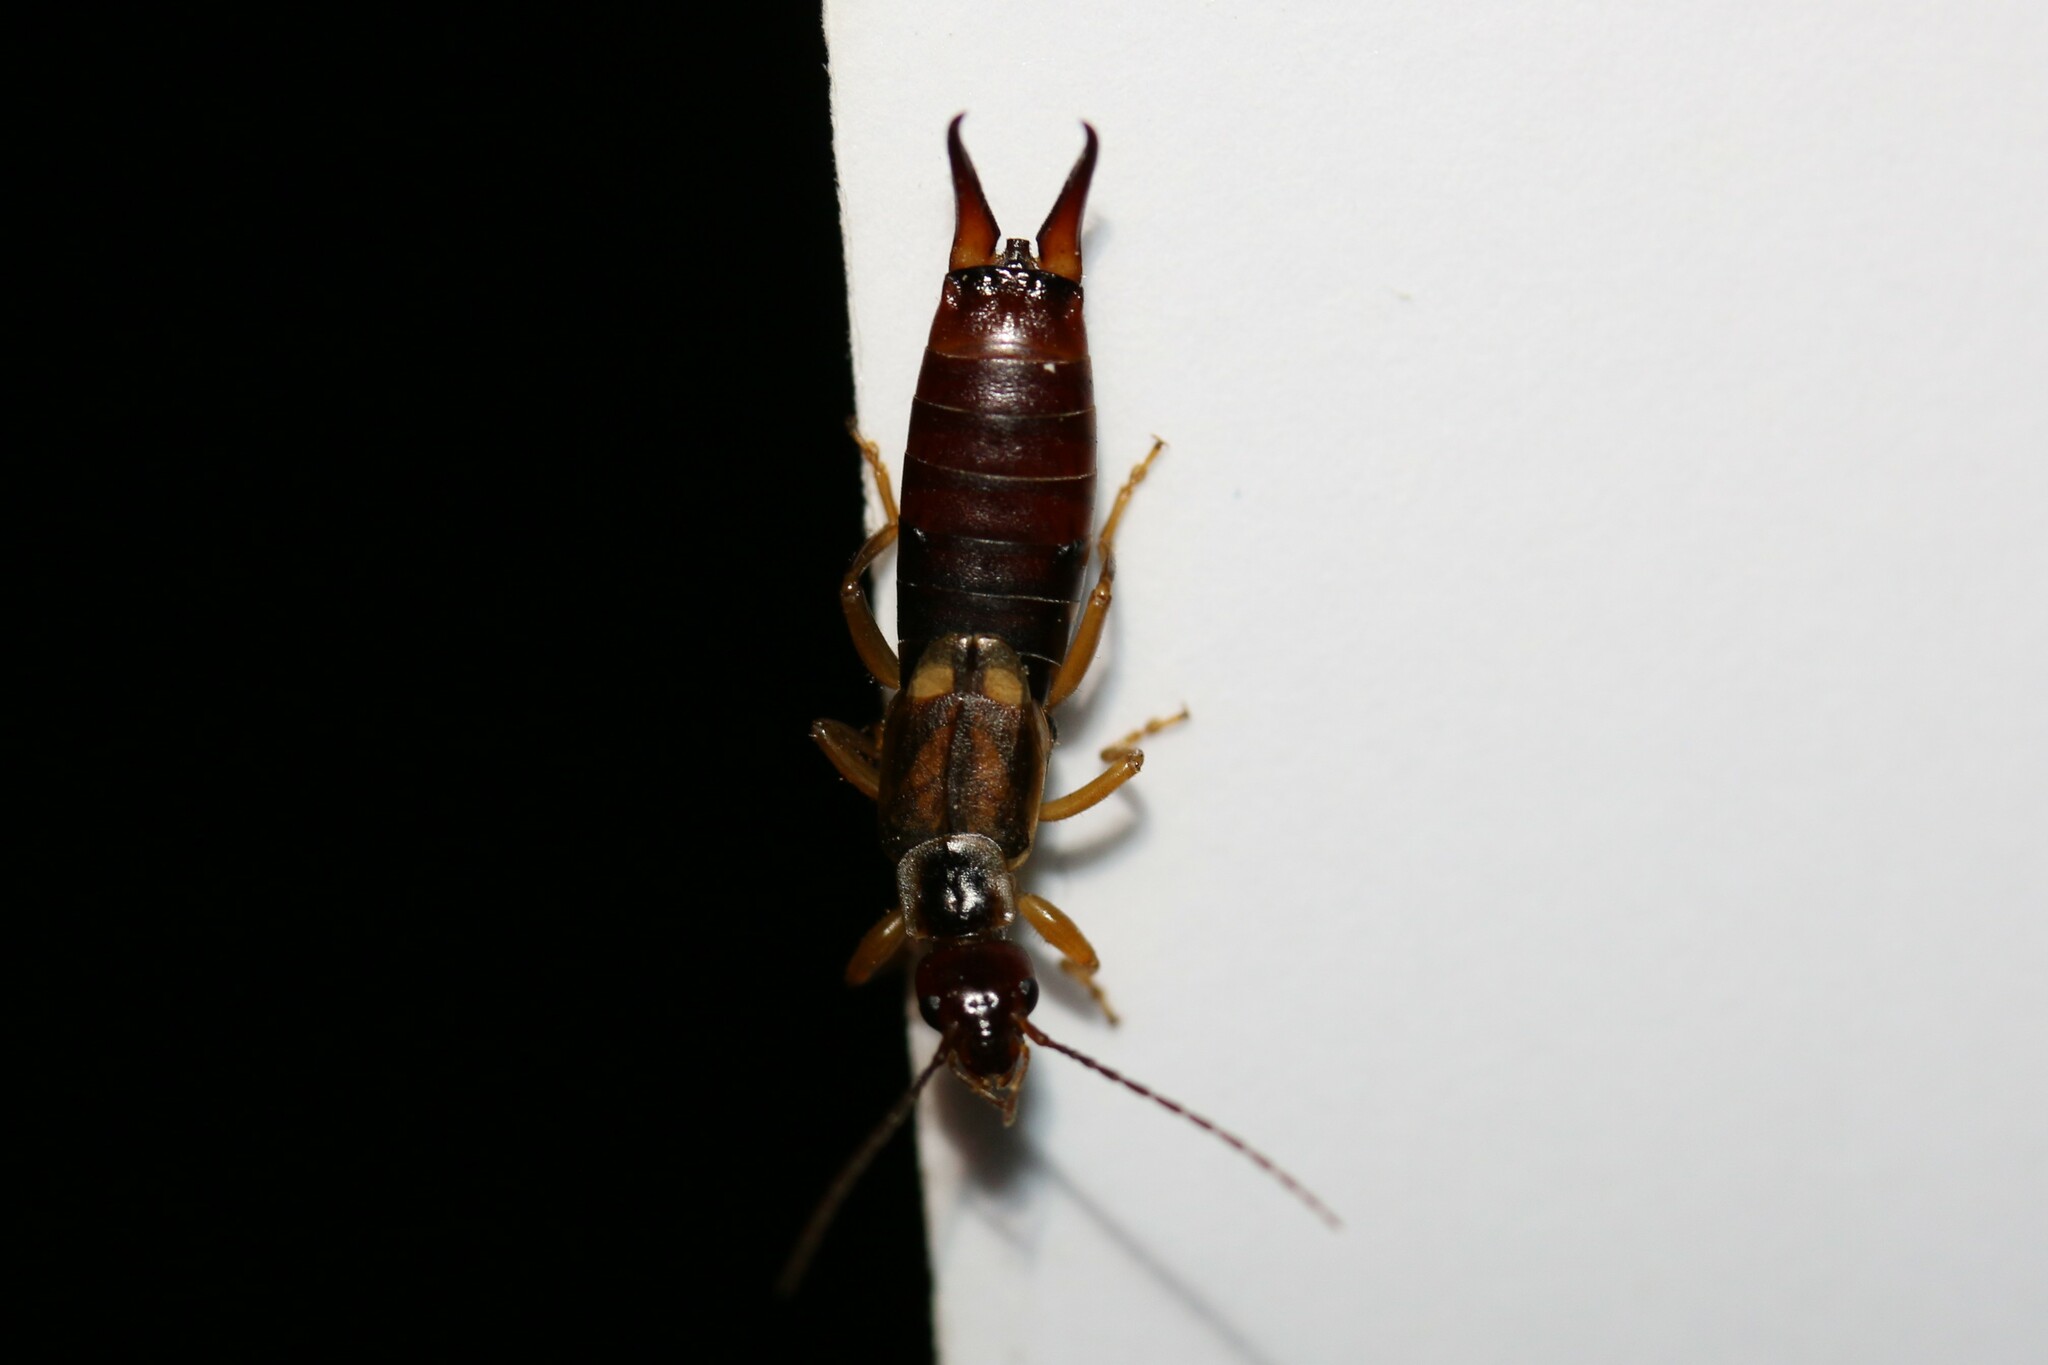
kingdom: Animalia
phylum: Arthropoda
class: Insecta
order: Dermaptera
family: Forficulidae
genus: Forficula
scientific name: Forficula
